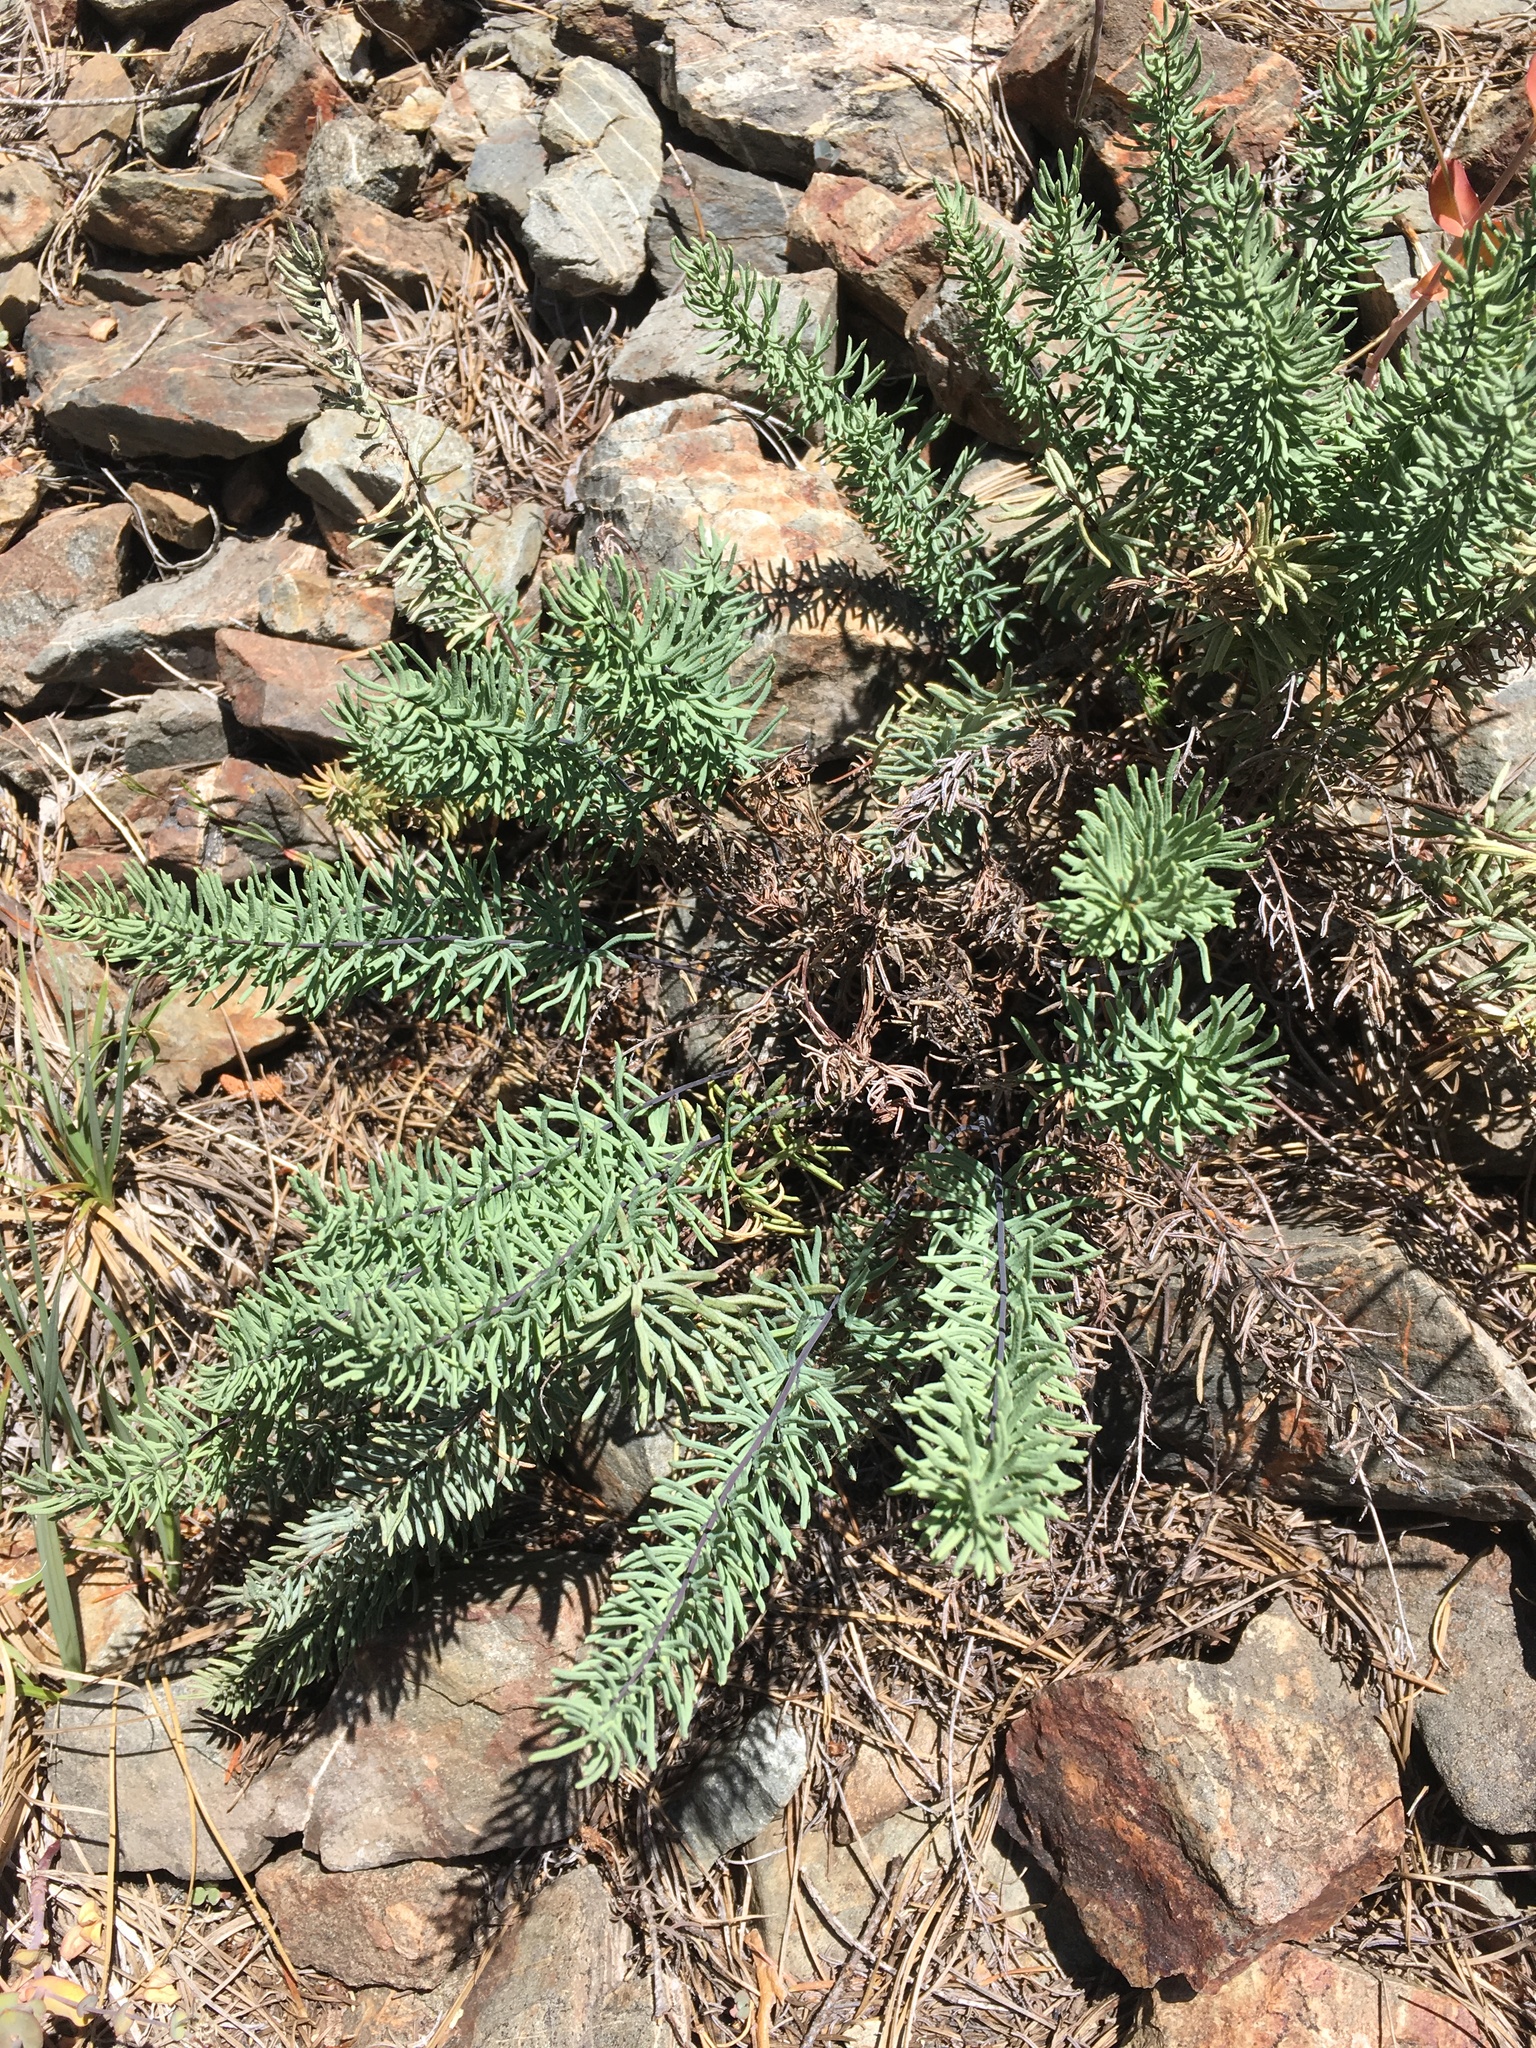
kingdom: Plantae
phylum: Tracheophyta
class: Polypodiopsida
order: Polypodiales
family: Pteridaceae
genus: Pellaea
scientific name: Pellaea brachyptera
